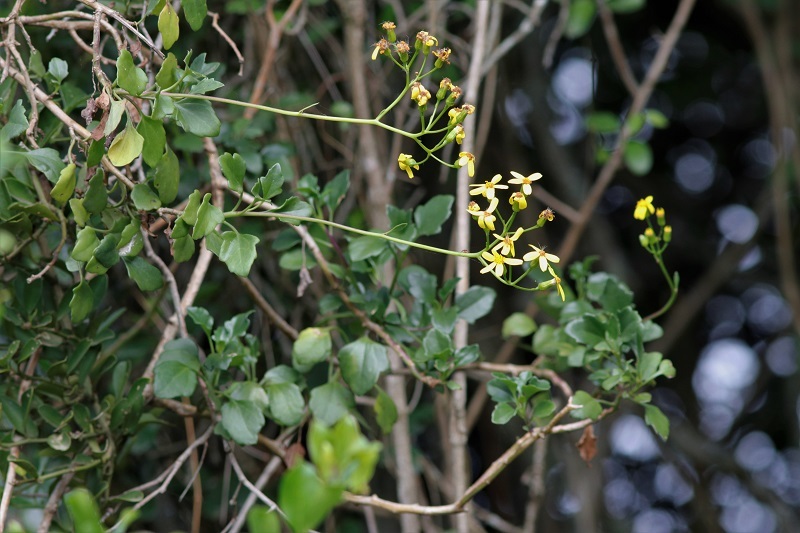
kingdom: Plantae
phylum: Tracheophyta
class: Magnoliopsida
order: Asterales
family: Asteraceae
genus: Senecio
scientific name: Senecio angulatus
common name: Climbing groundsel
